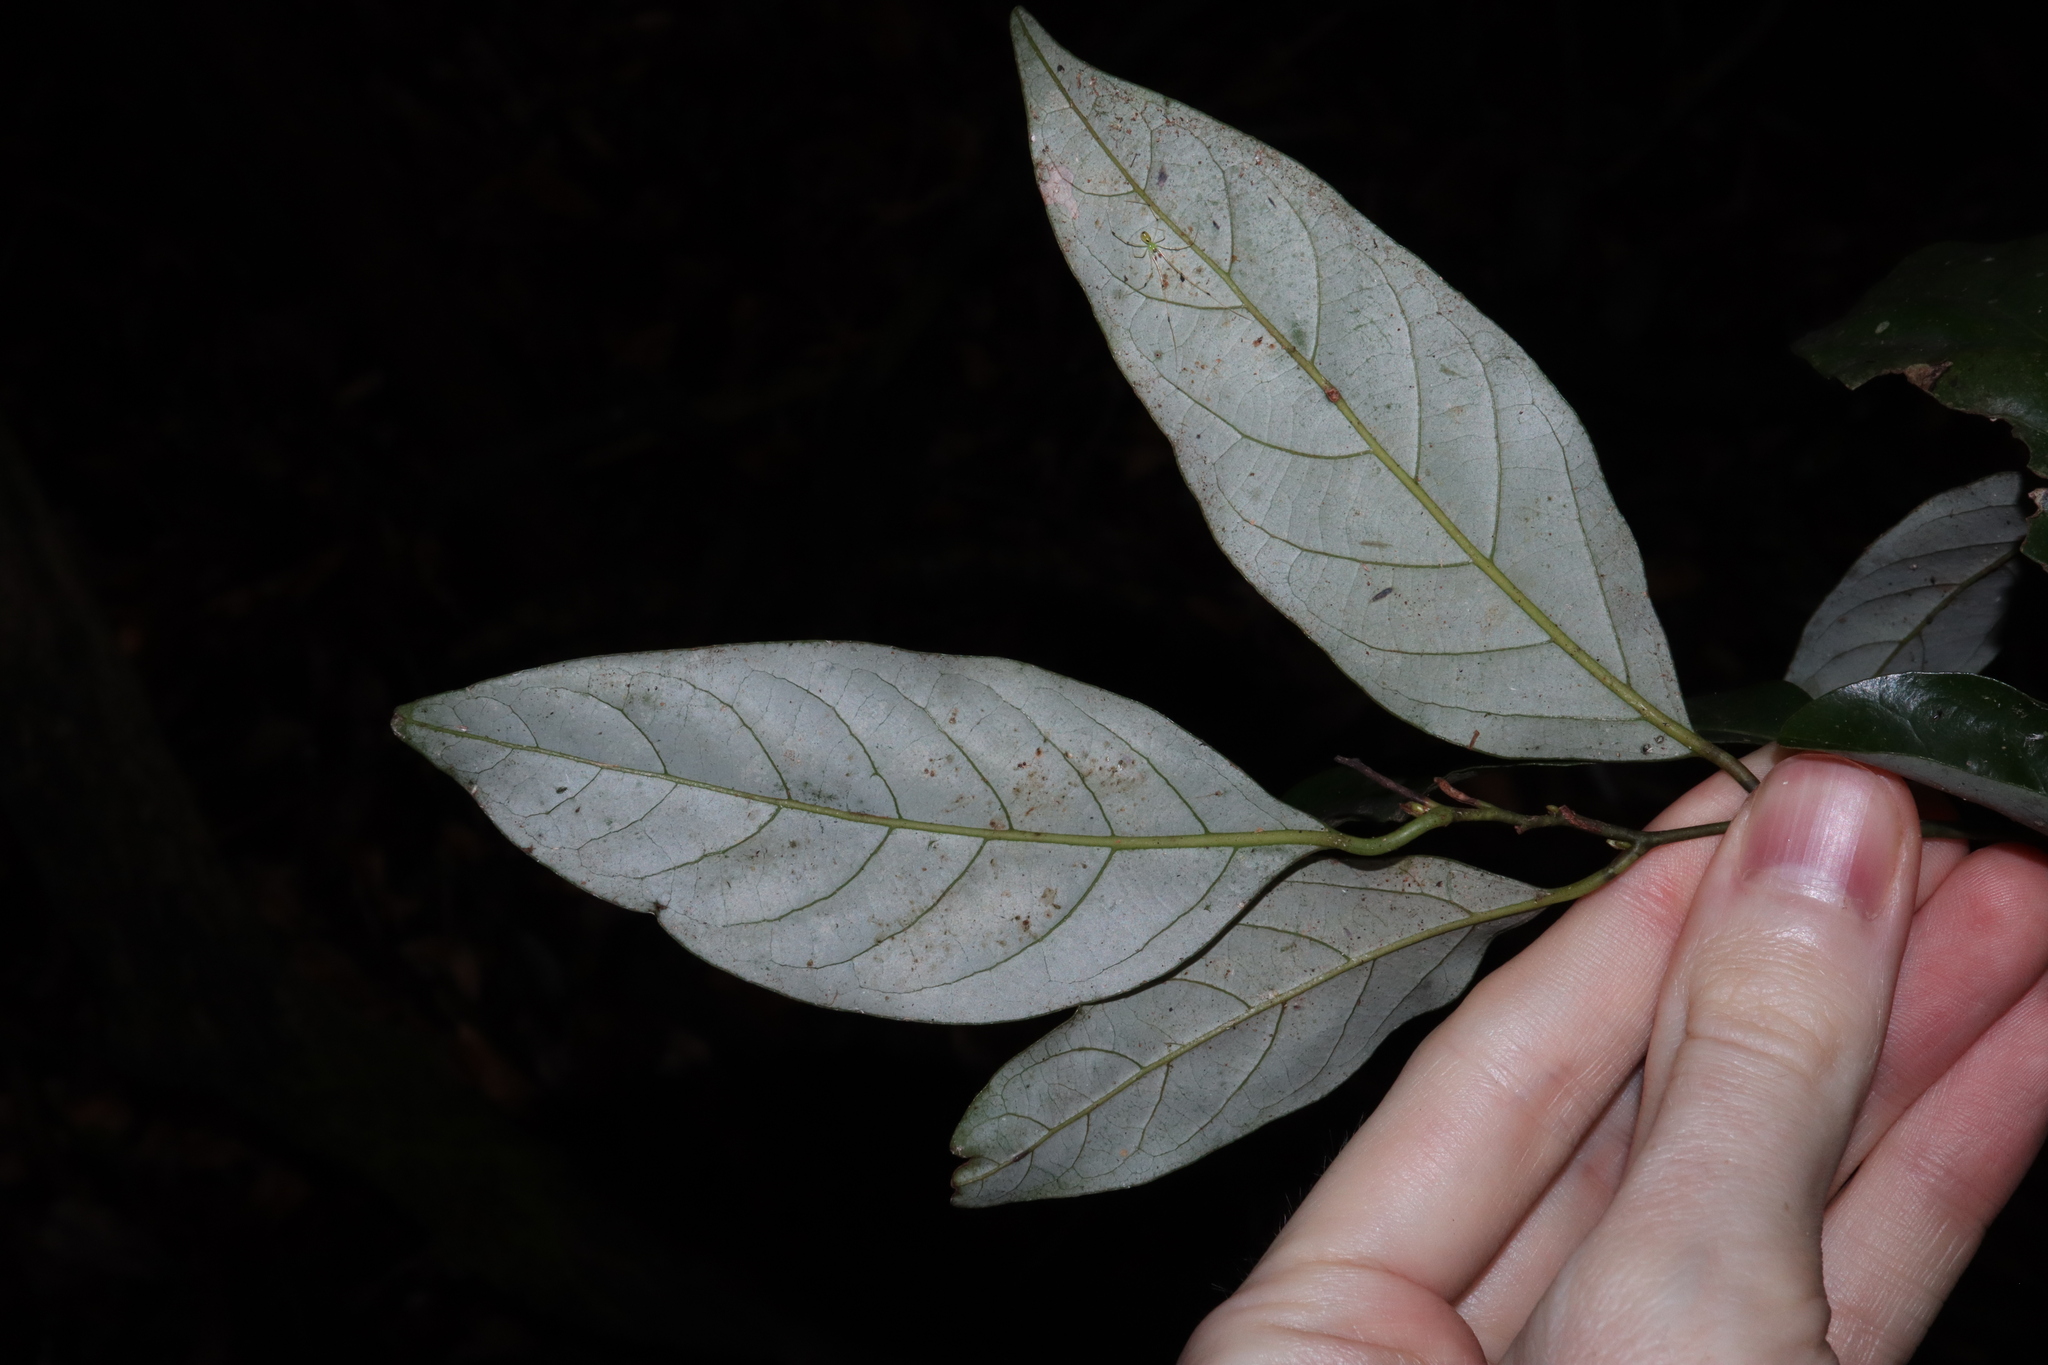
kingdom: Plantae
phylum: Tracheophyta
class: Magnoliopsida
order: Laurales
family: Lauraceae
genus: Endiandra
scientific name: Endiandra crassiflora
